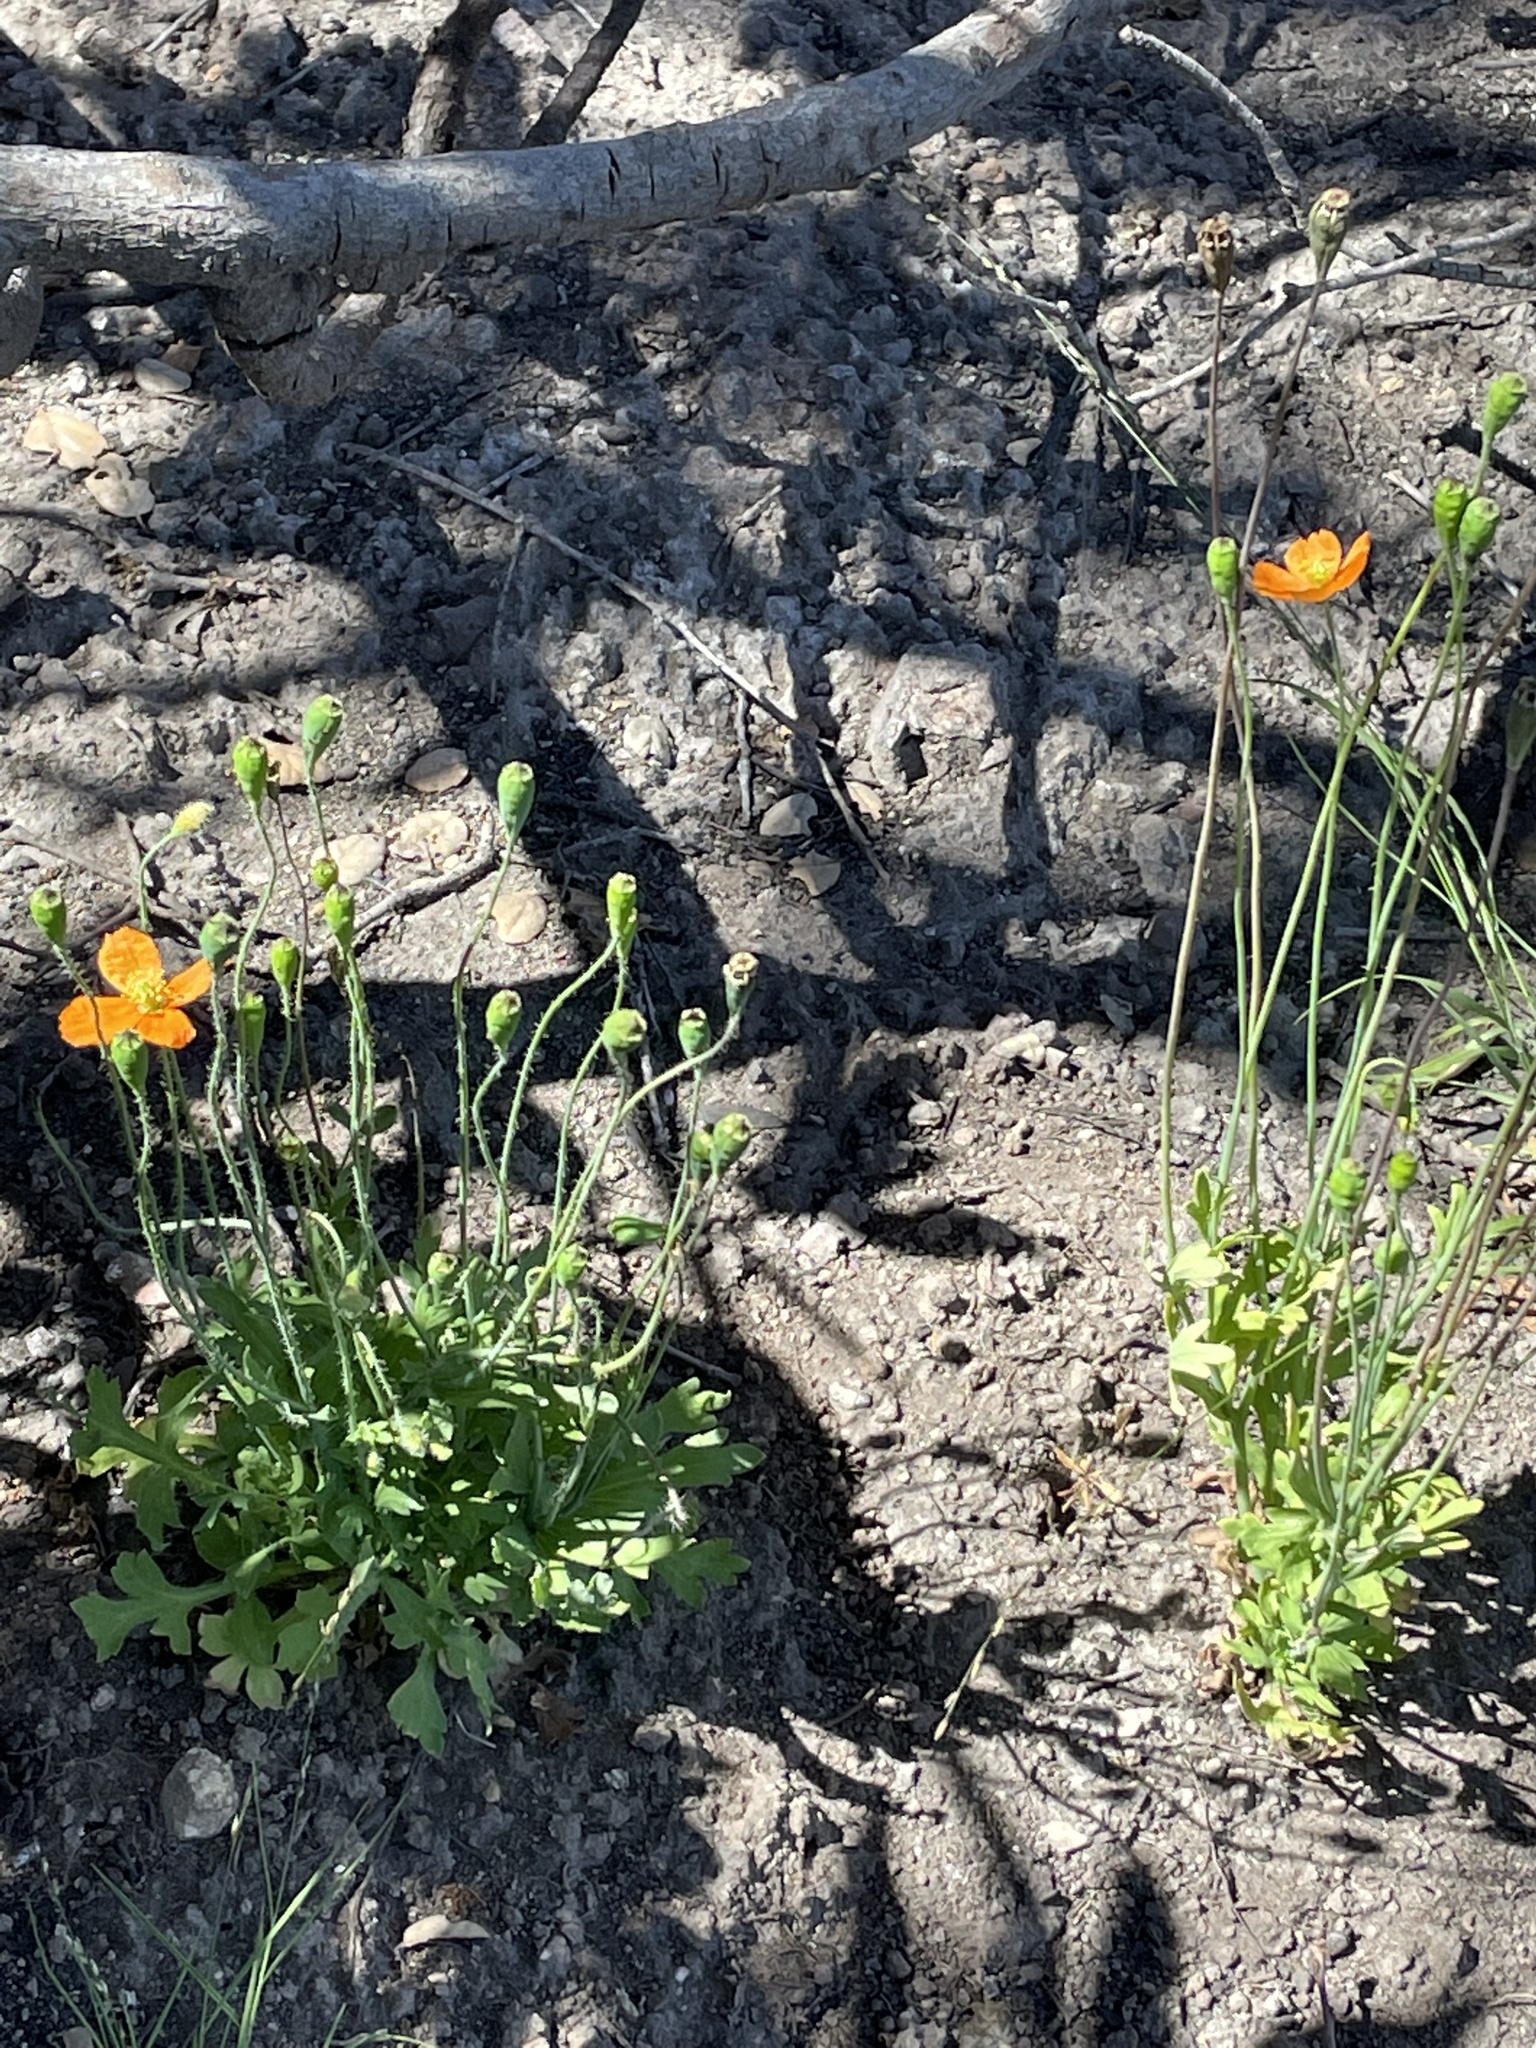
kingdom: Plantae
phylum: Tracheophyta
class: Magnoliopsida
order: Ranunculales
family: Papaveraceae
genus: Papaver
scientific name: Papaver californicum
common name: Fire poppy
